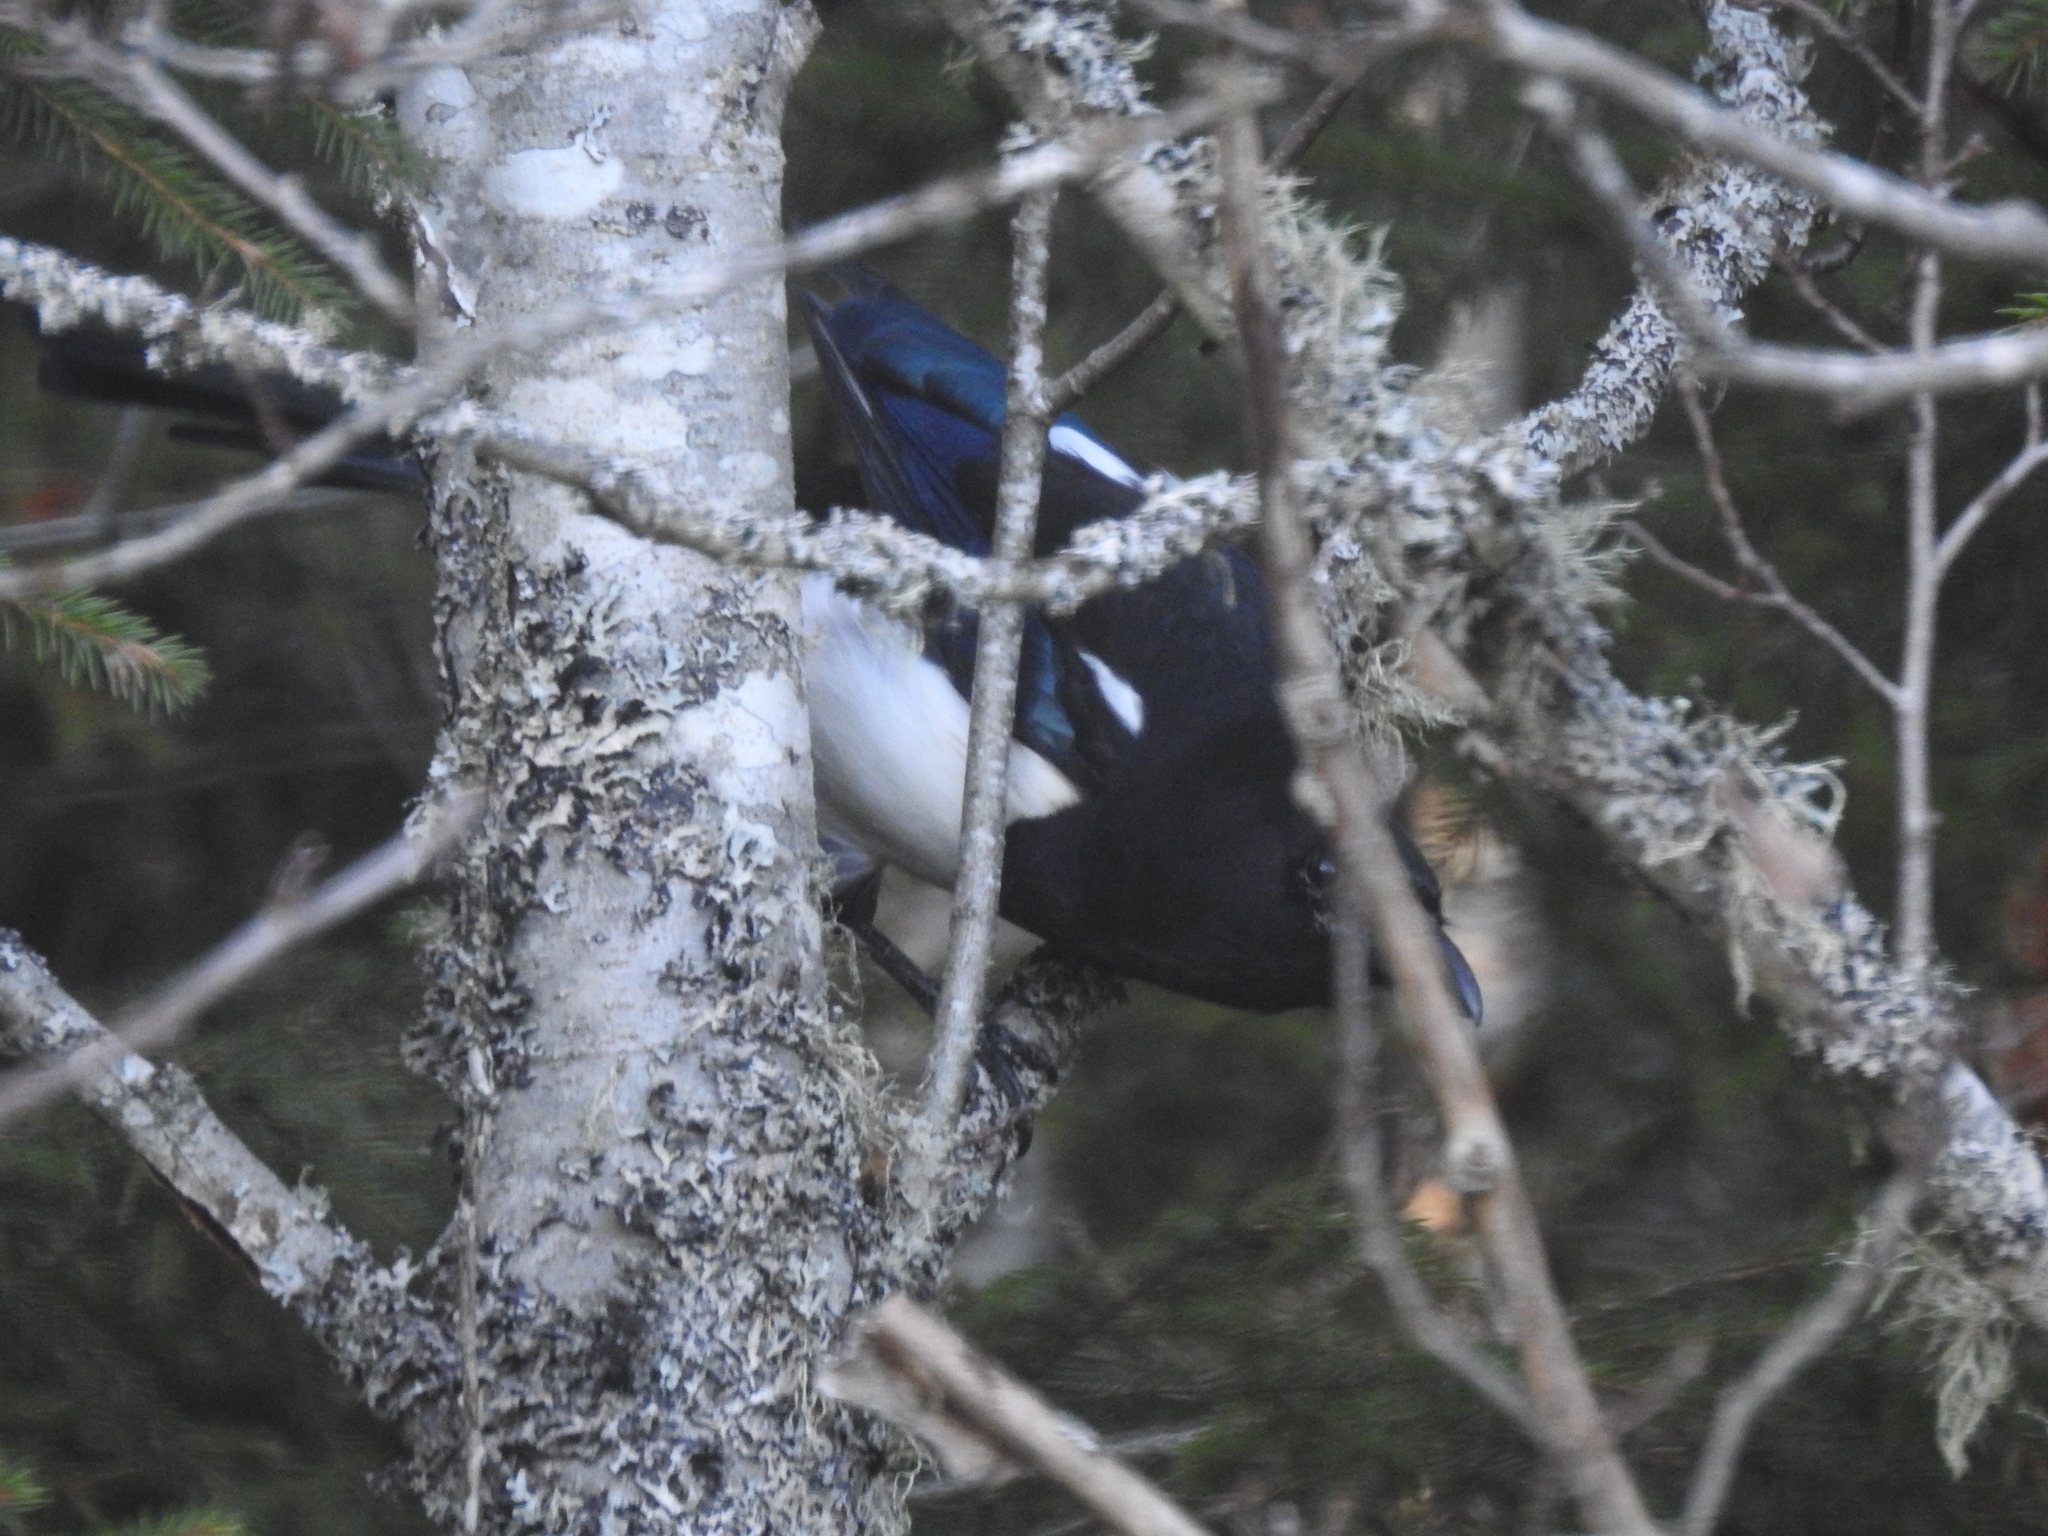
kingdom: Animalia
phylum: Chordata
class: Aves
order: Passeriformes
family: Corvidae
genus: Pica
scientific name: Pica pica
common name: Eurasian magpie
